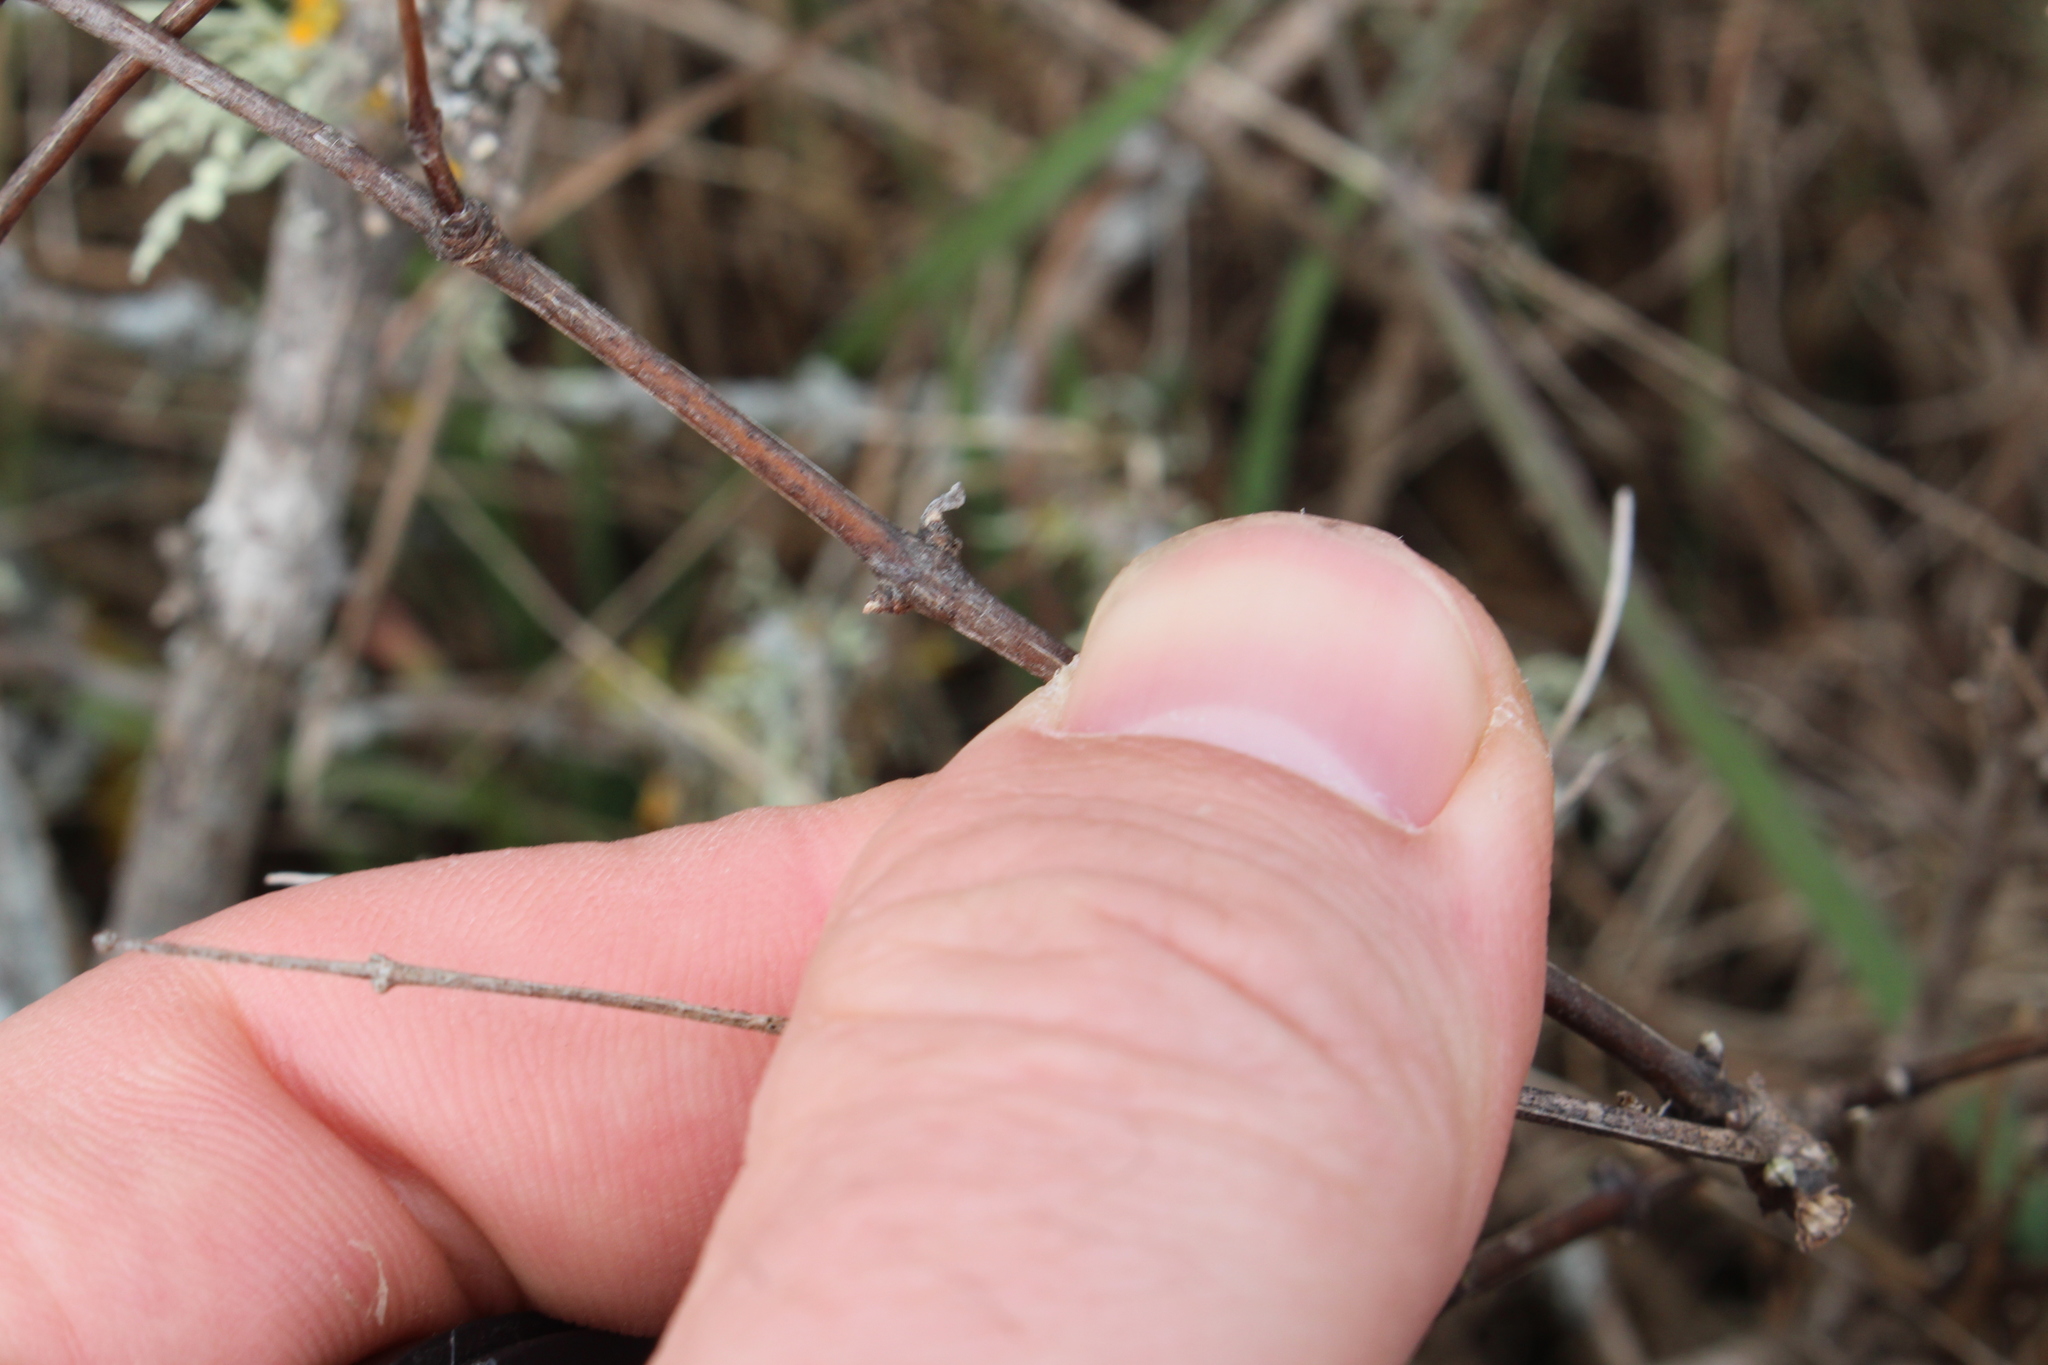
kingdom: Plantae
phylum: Tracheophyta
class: Magnoliopsida
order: Asterales
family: Asteraceae
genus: Olearia
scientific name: Olearia adenocarpa
